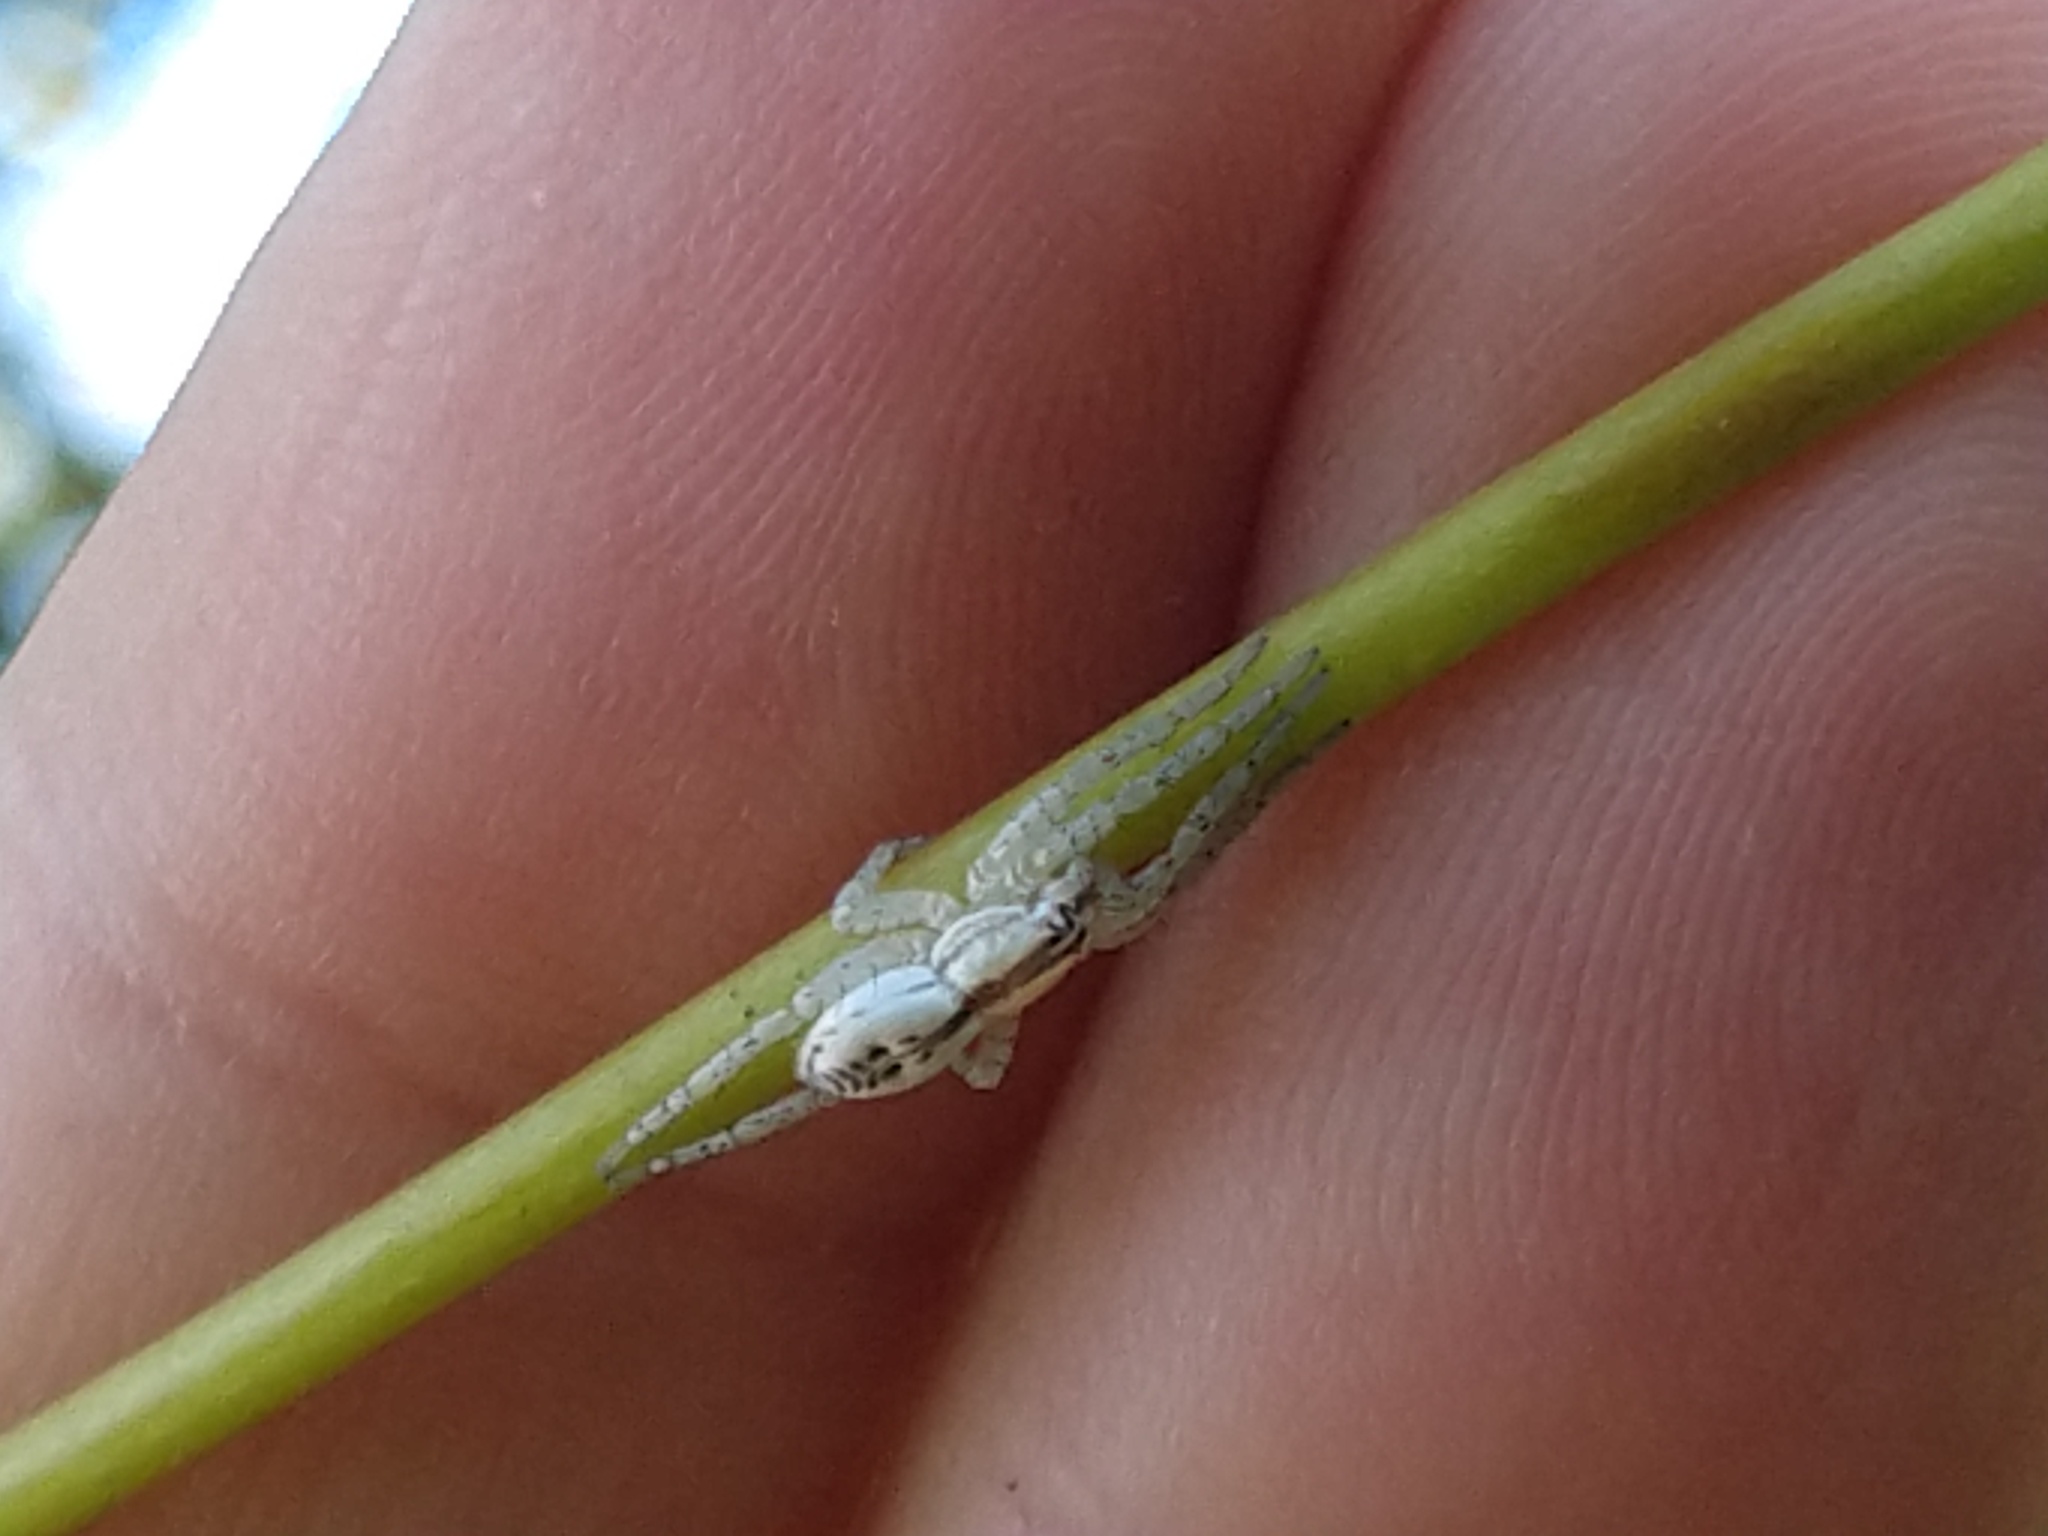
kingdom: Animalia
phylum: Arthropoda
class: Arachnida
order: Araneae
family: Anyphaenidae
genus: Arachosia
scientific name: Arachosia praesignis
